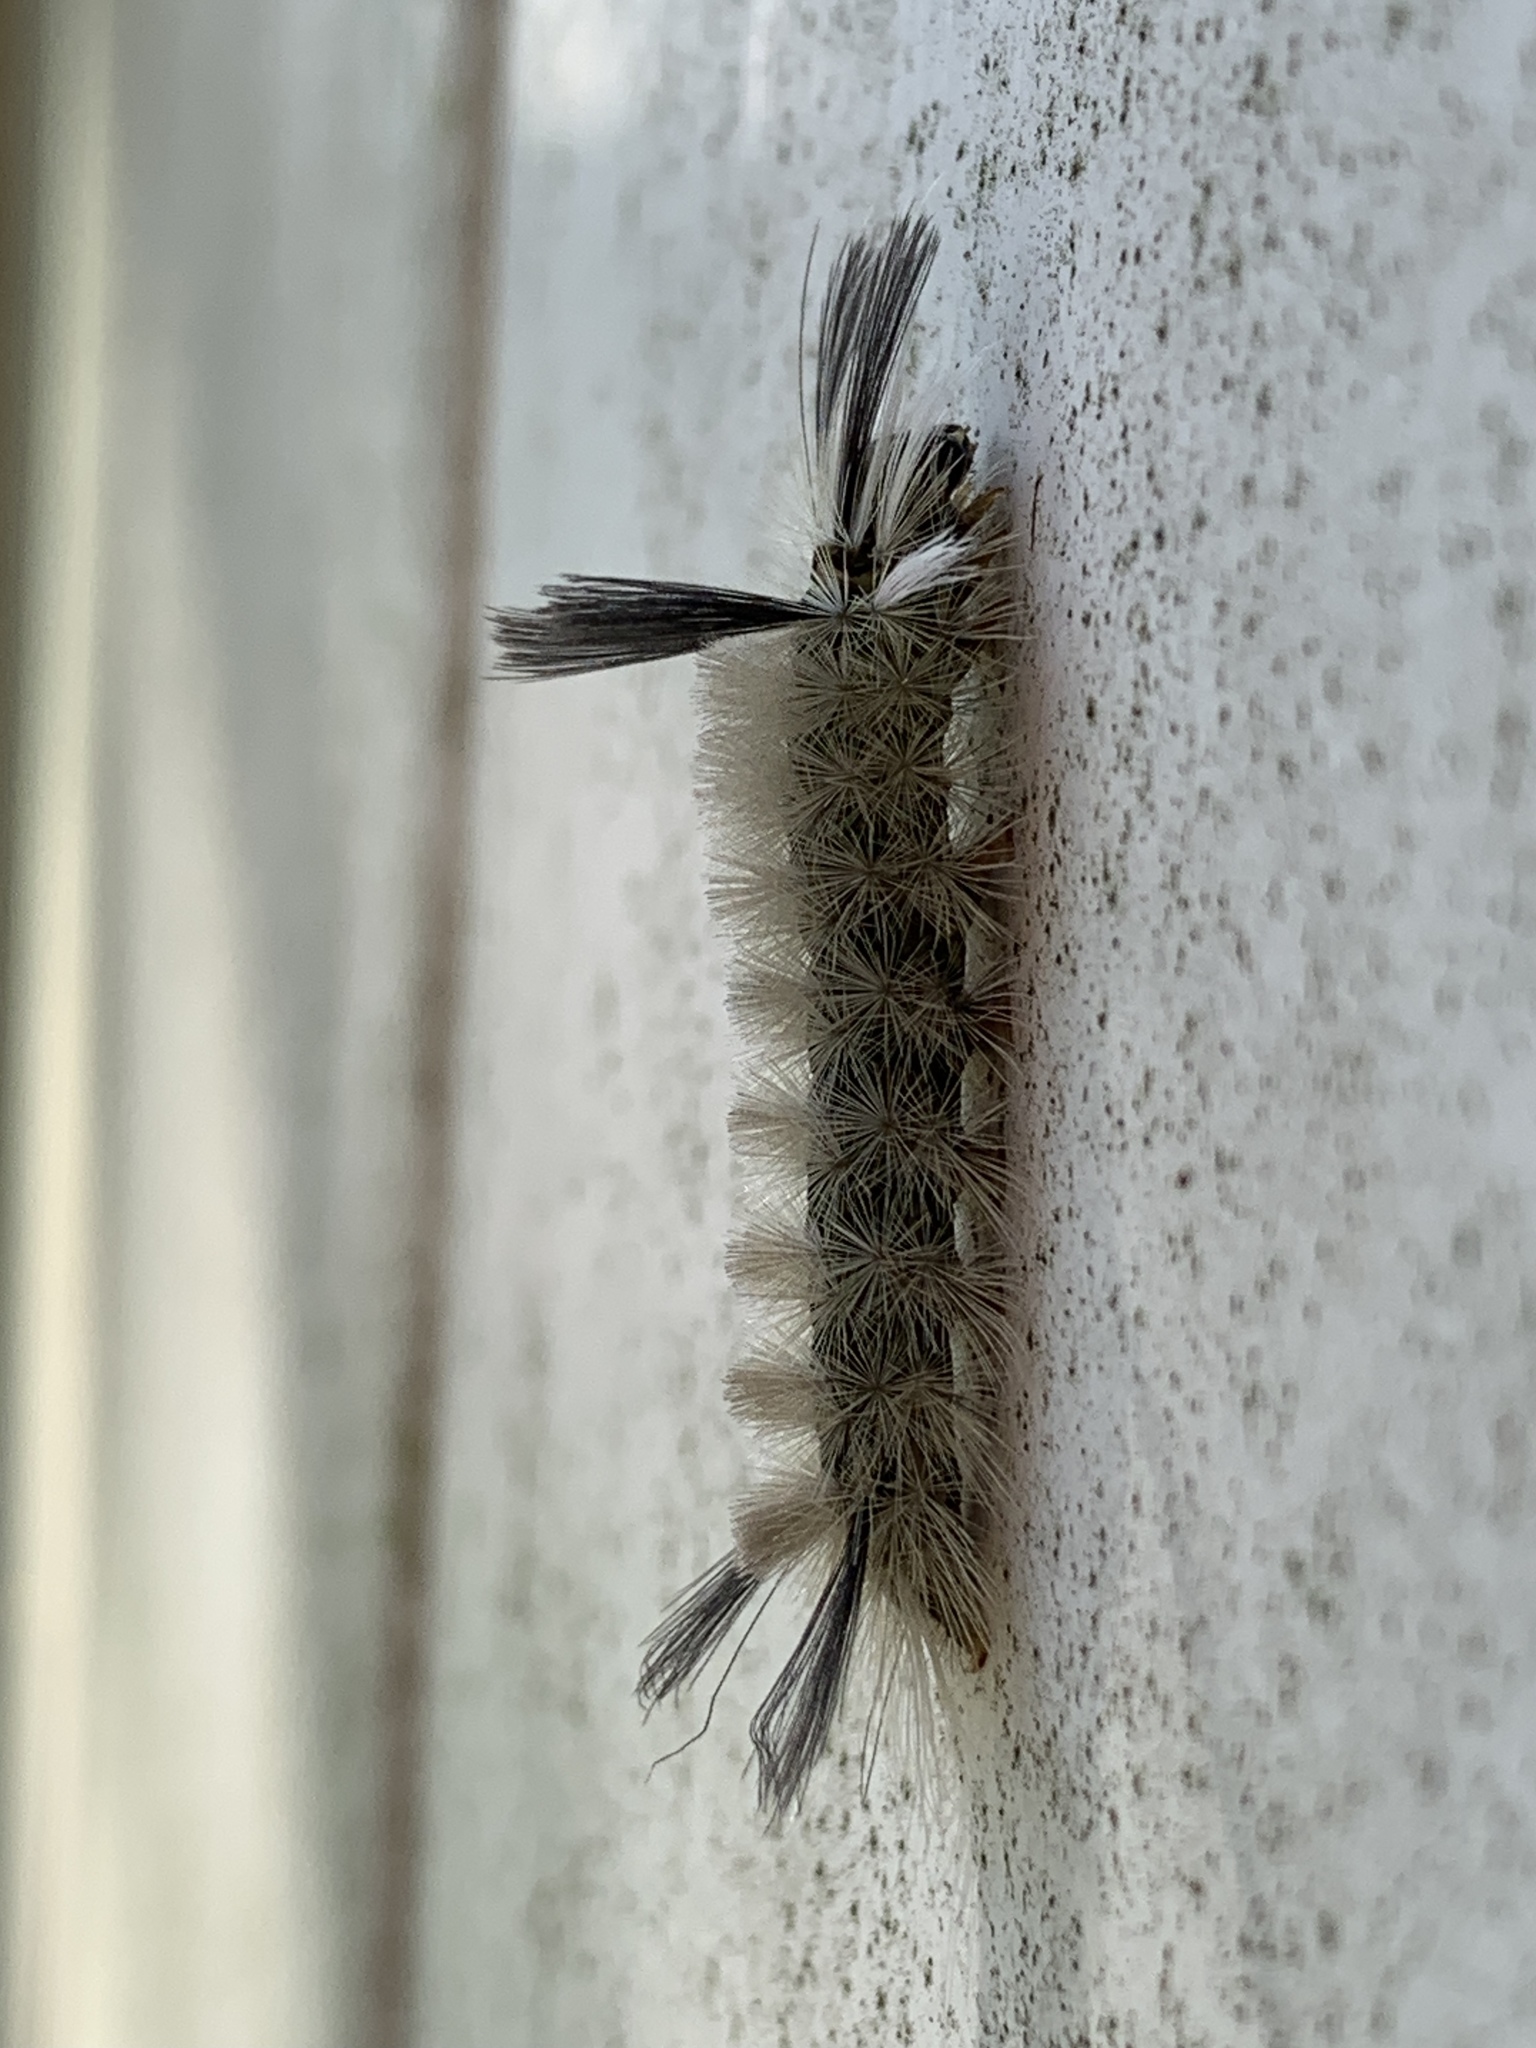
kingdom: Animalia
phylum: Arthropoda
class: Insecta
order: Lepidoptera
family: Erebidae
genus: Halysidota
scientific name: Halysidota tessellaris
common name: Banded tussock moth
